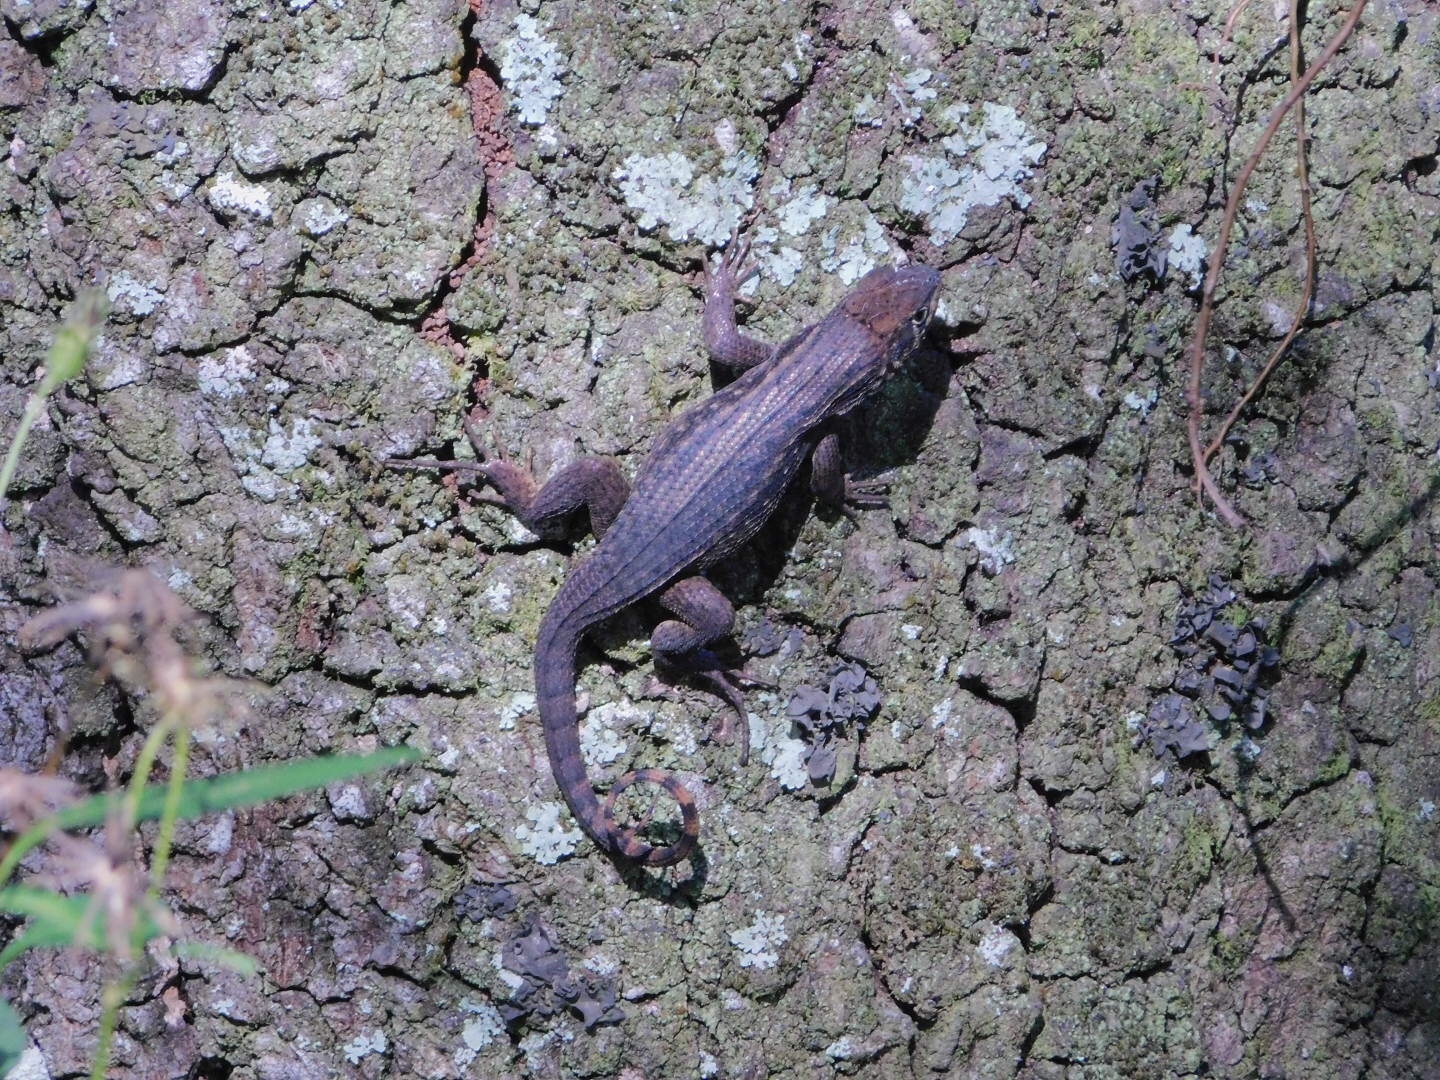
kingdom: Animalia
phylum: Chordata
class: Squamata
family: Leiocephalidae
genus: Leiocephalus
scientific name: Leiocephalus carinatus
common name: Northern curly-tailed lizard
